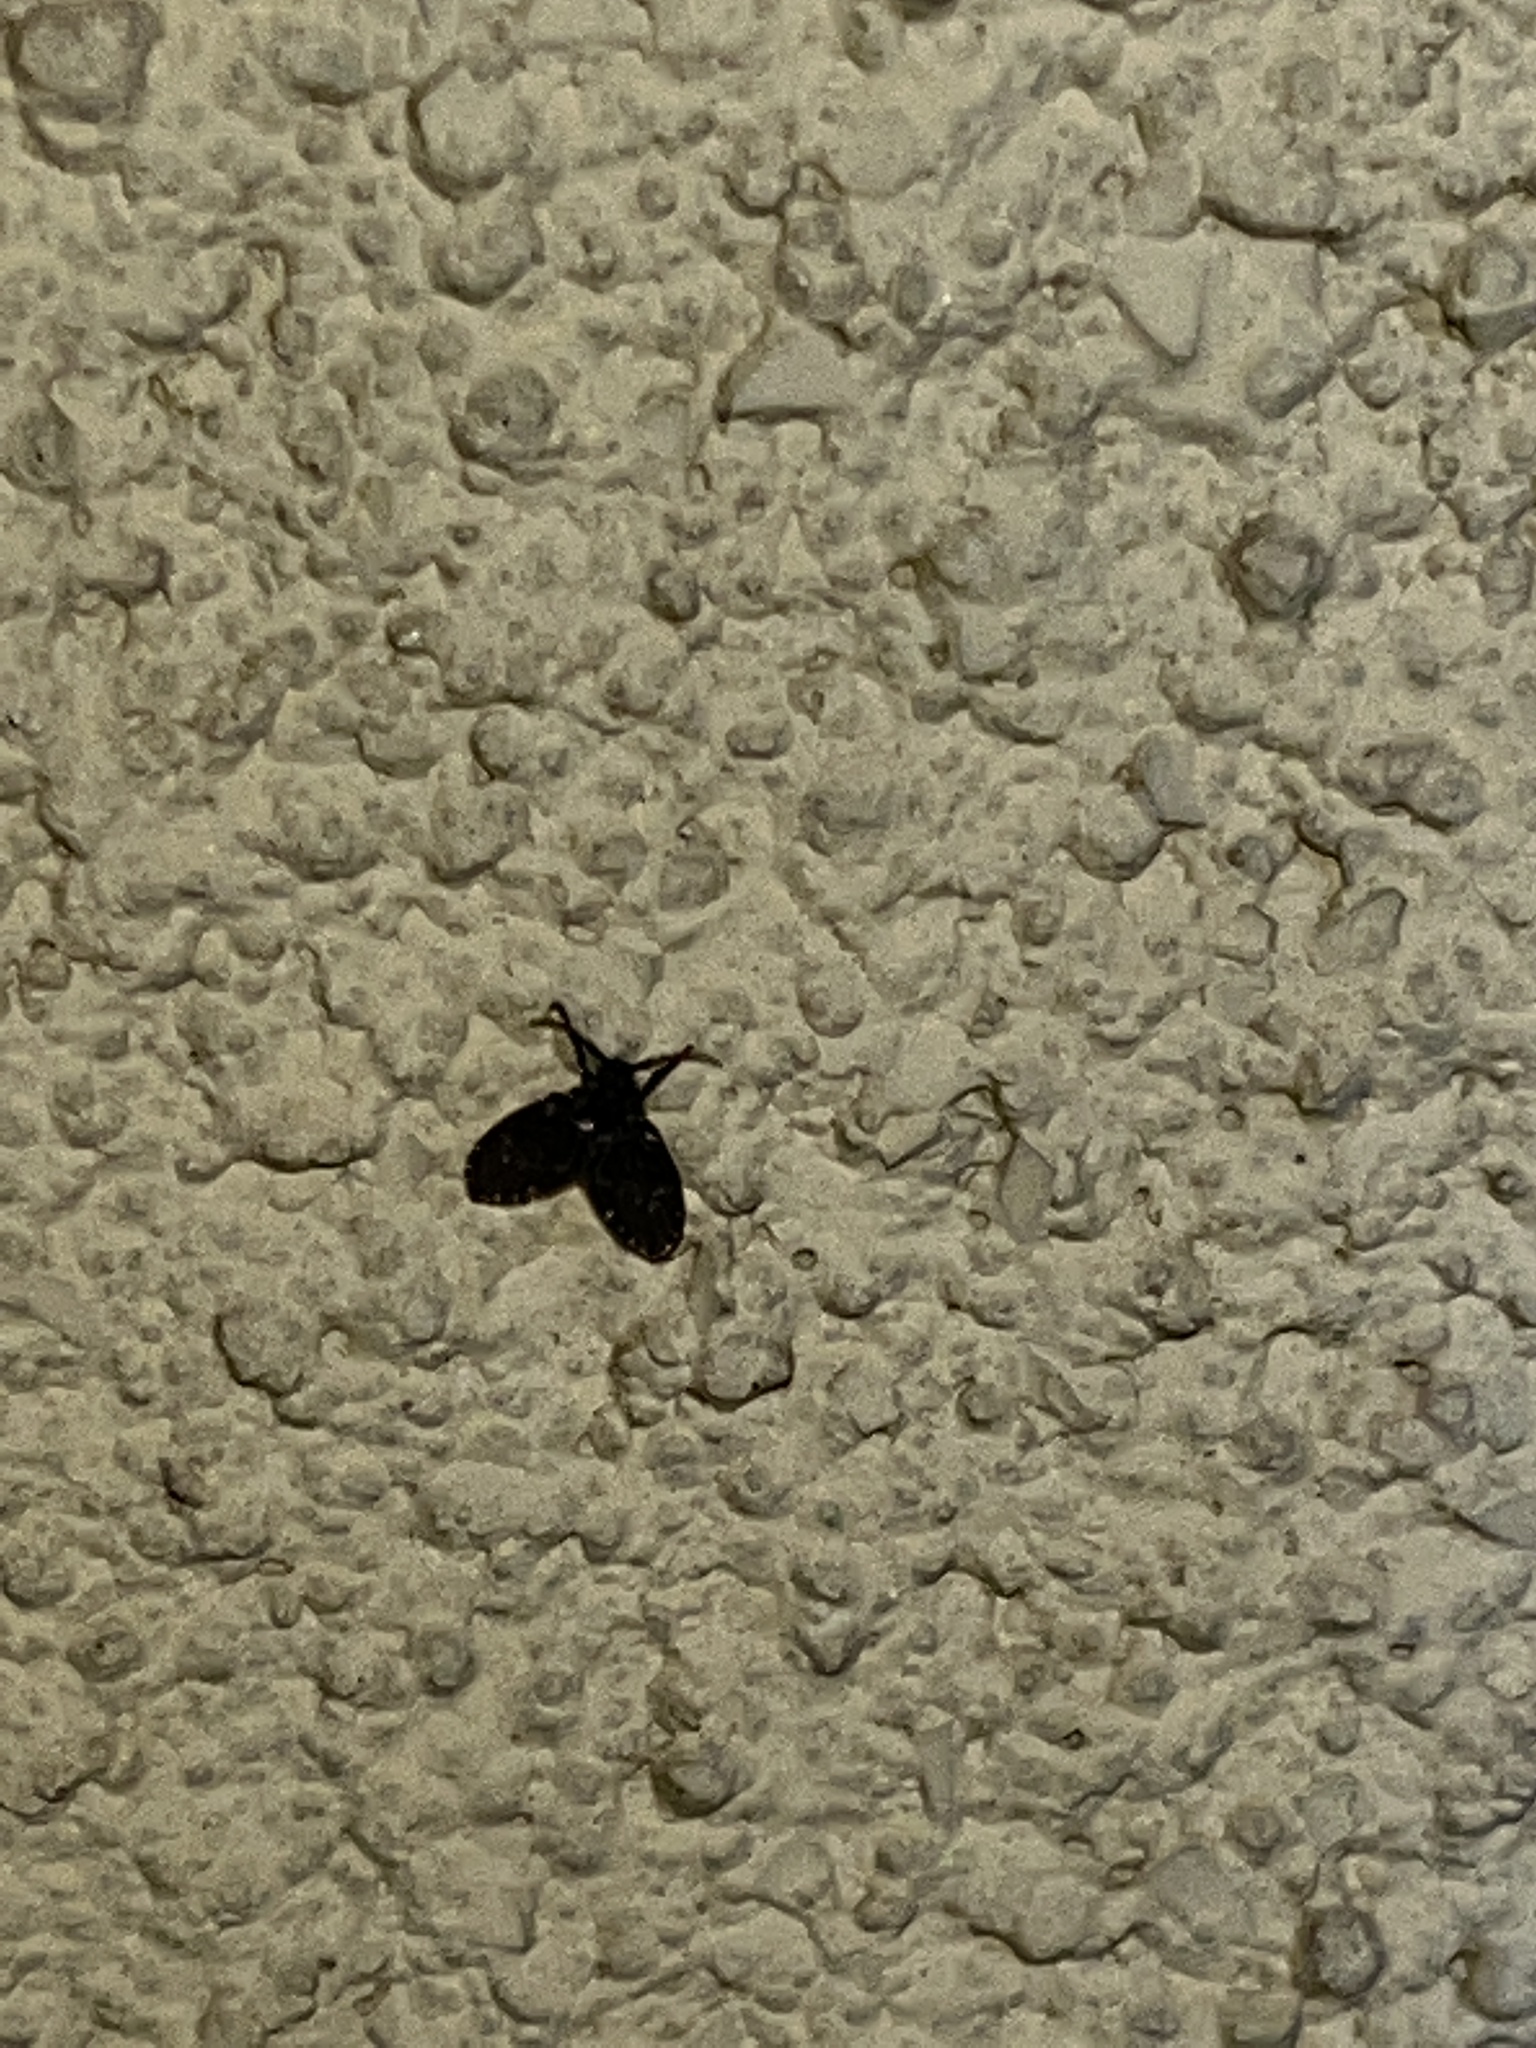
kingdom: Animalia
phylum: Arthropoda
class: Insecta
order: Diptera
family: Psychodidae
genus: Clogmia
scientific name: Clogmia albipunctatus
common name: White-spotted moth fly
